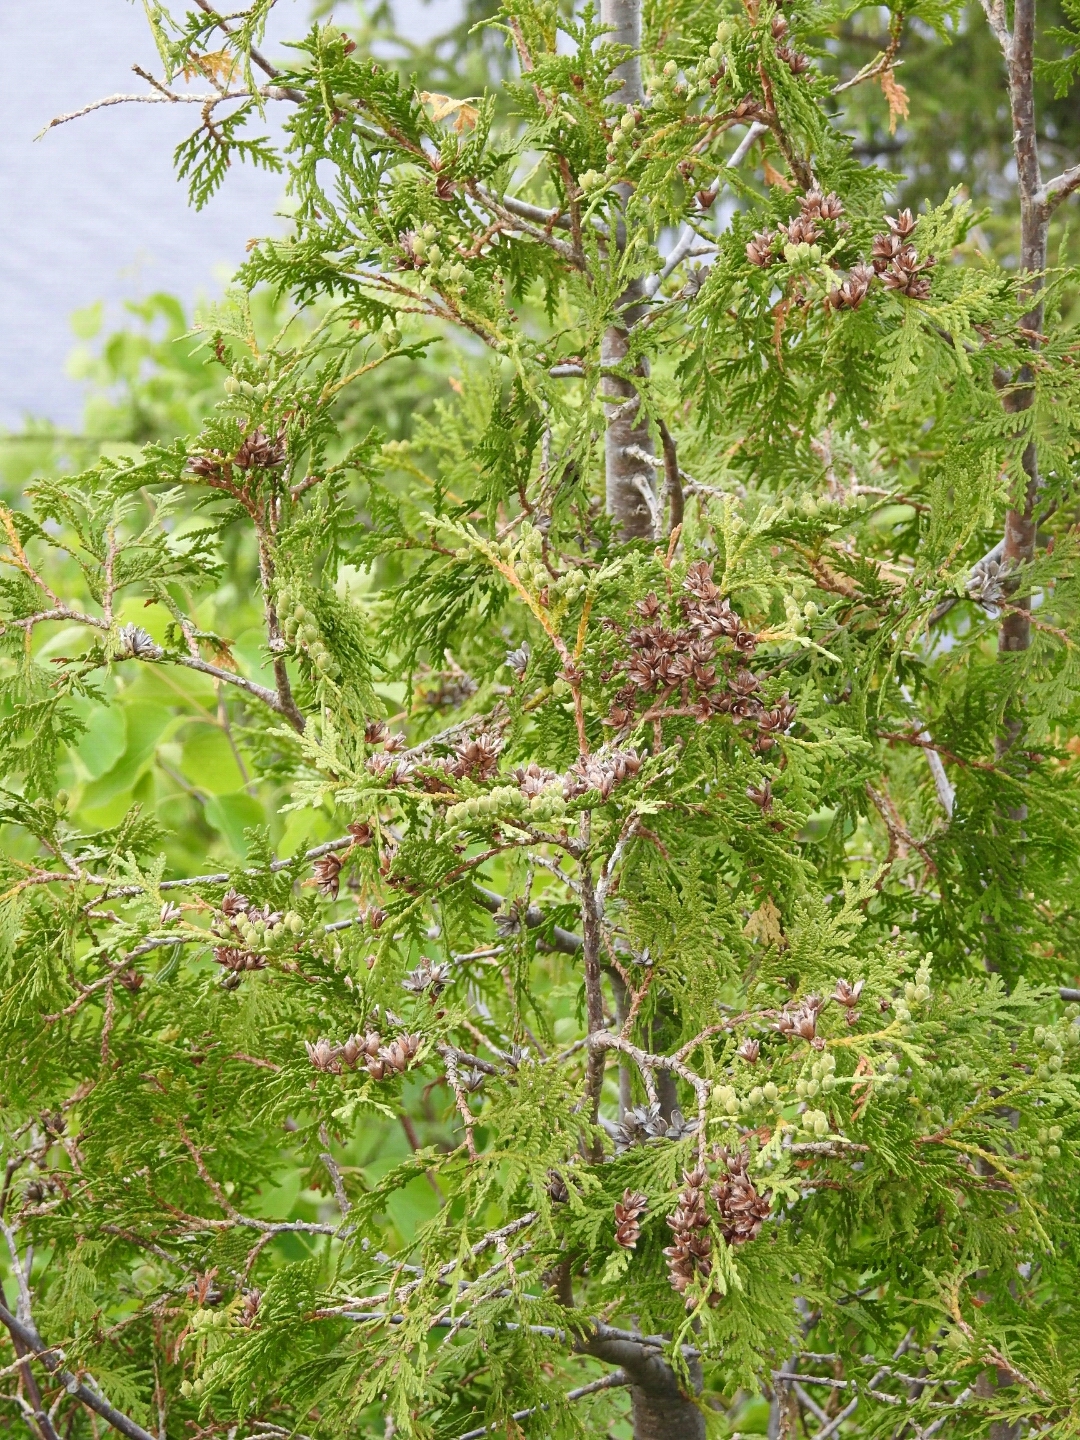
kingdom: Plantae
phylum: Tracheophyta
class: Pinopsida
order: Pinales
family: Cupressaceae
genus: Thuja
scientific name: Thuja occidentalis
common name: Northern white-cedar
